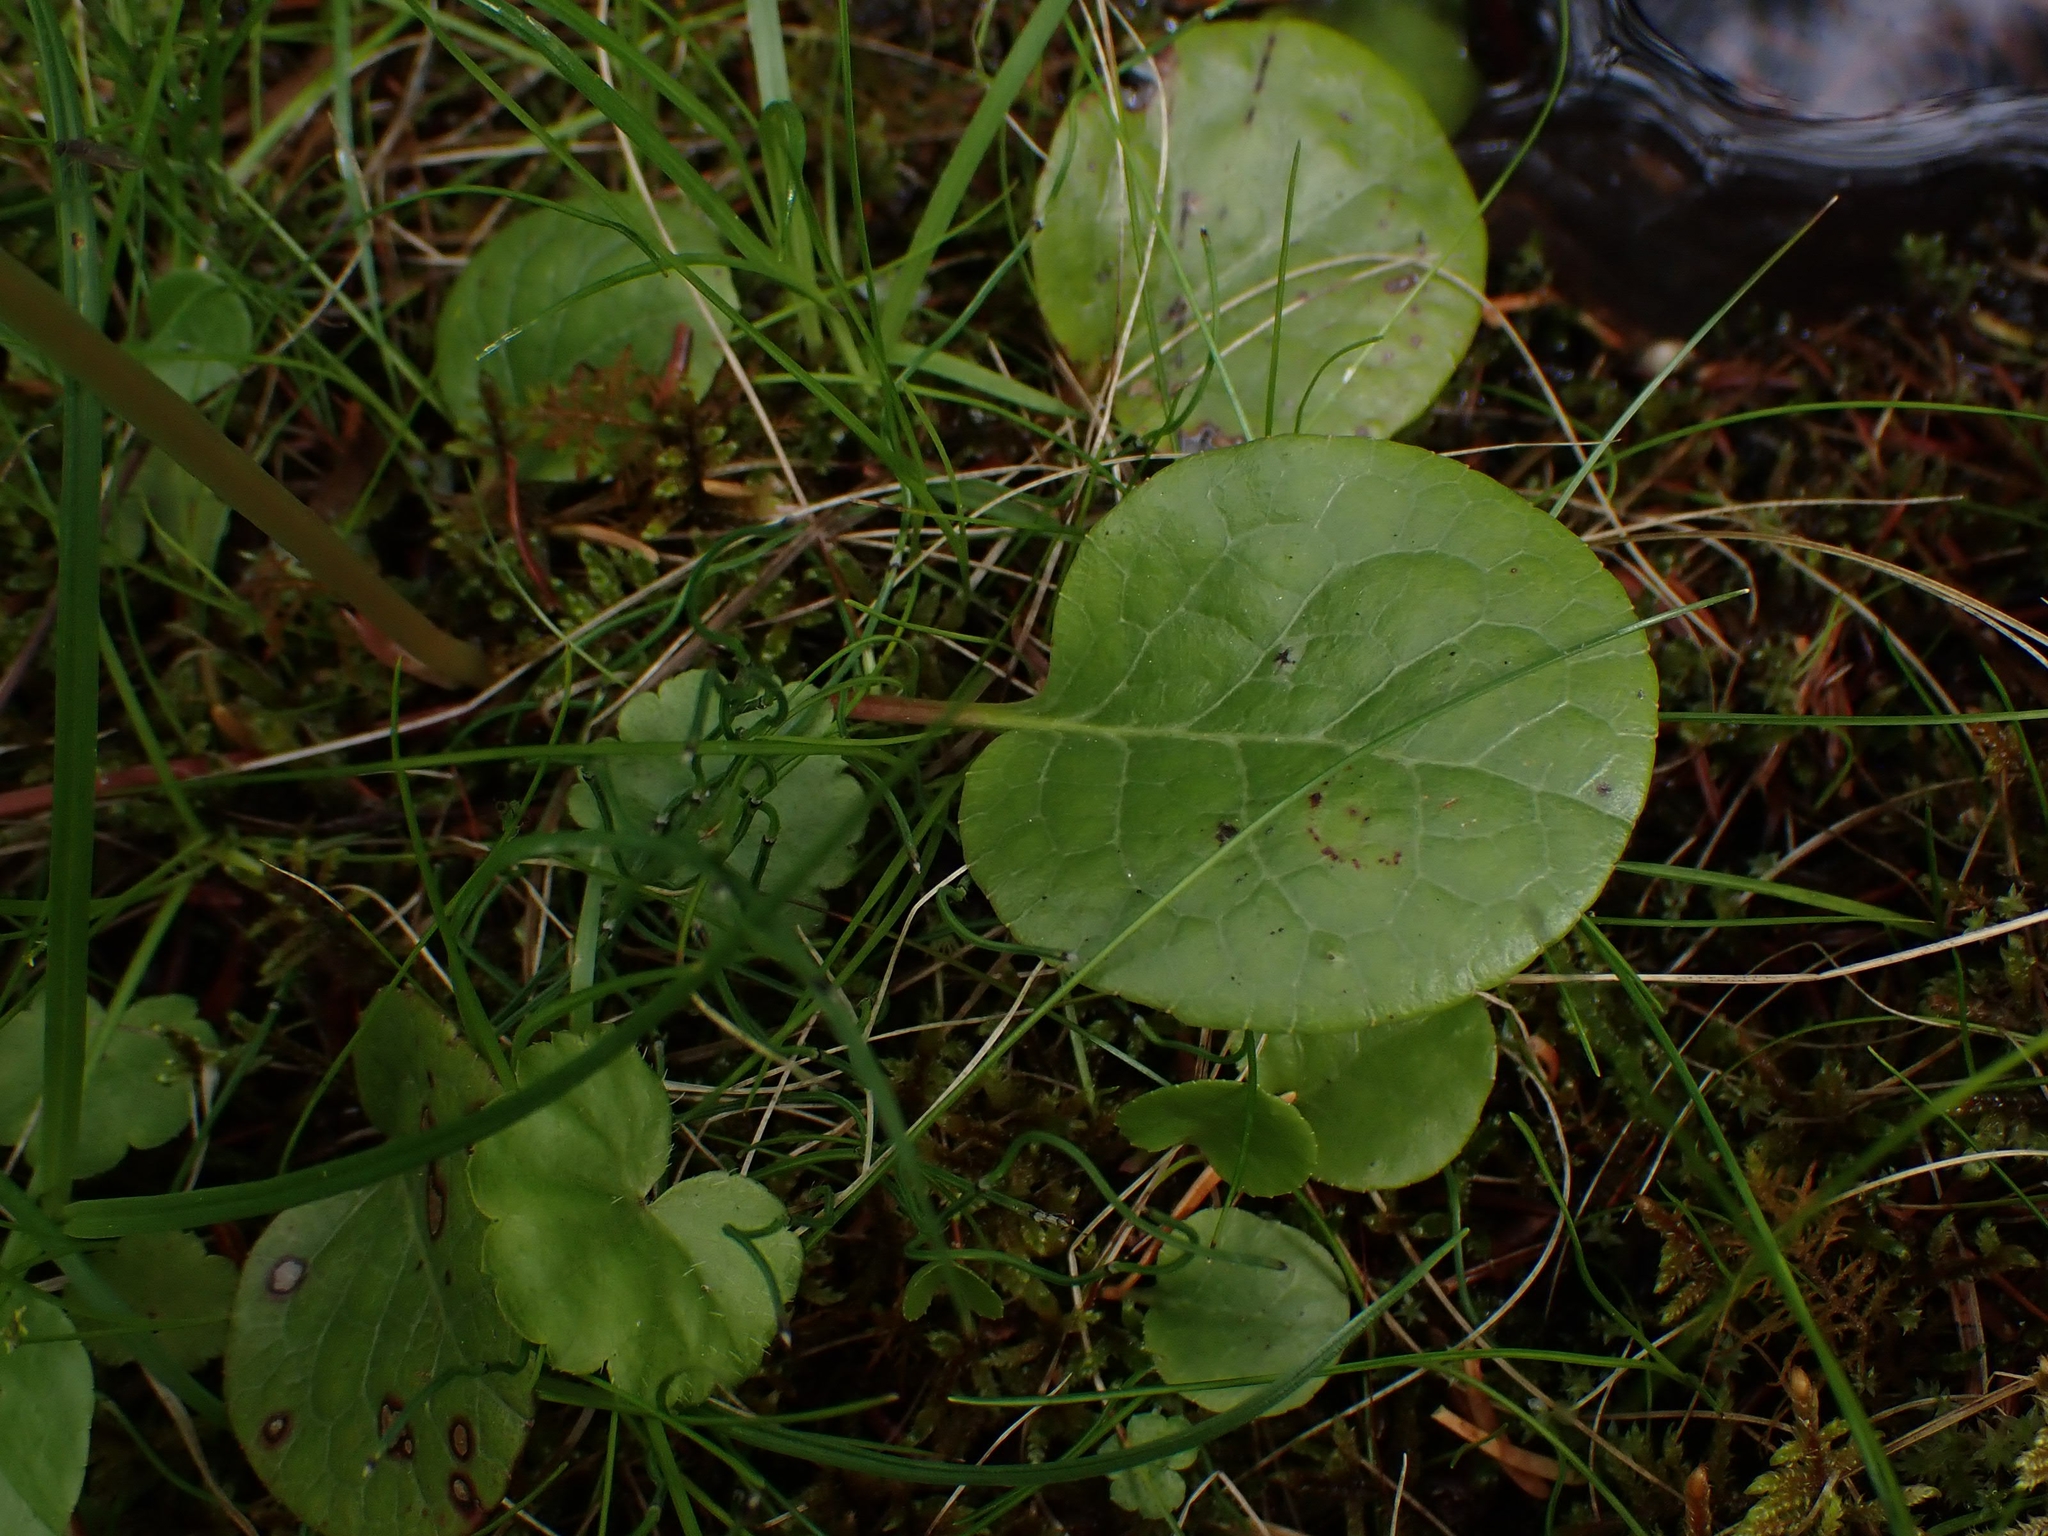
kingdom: Plantae
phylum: Tracheophyta
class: Magnoliopsida
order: Ericales
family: Ericaceae
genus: Pyrola
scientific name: Pyrola asarifolia
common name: Bog wintergreen
